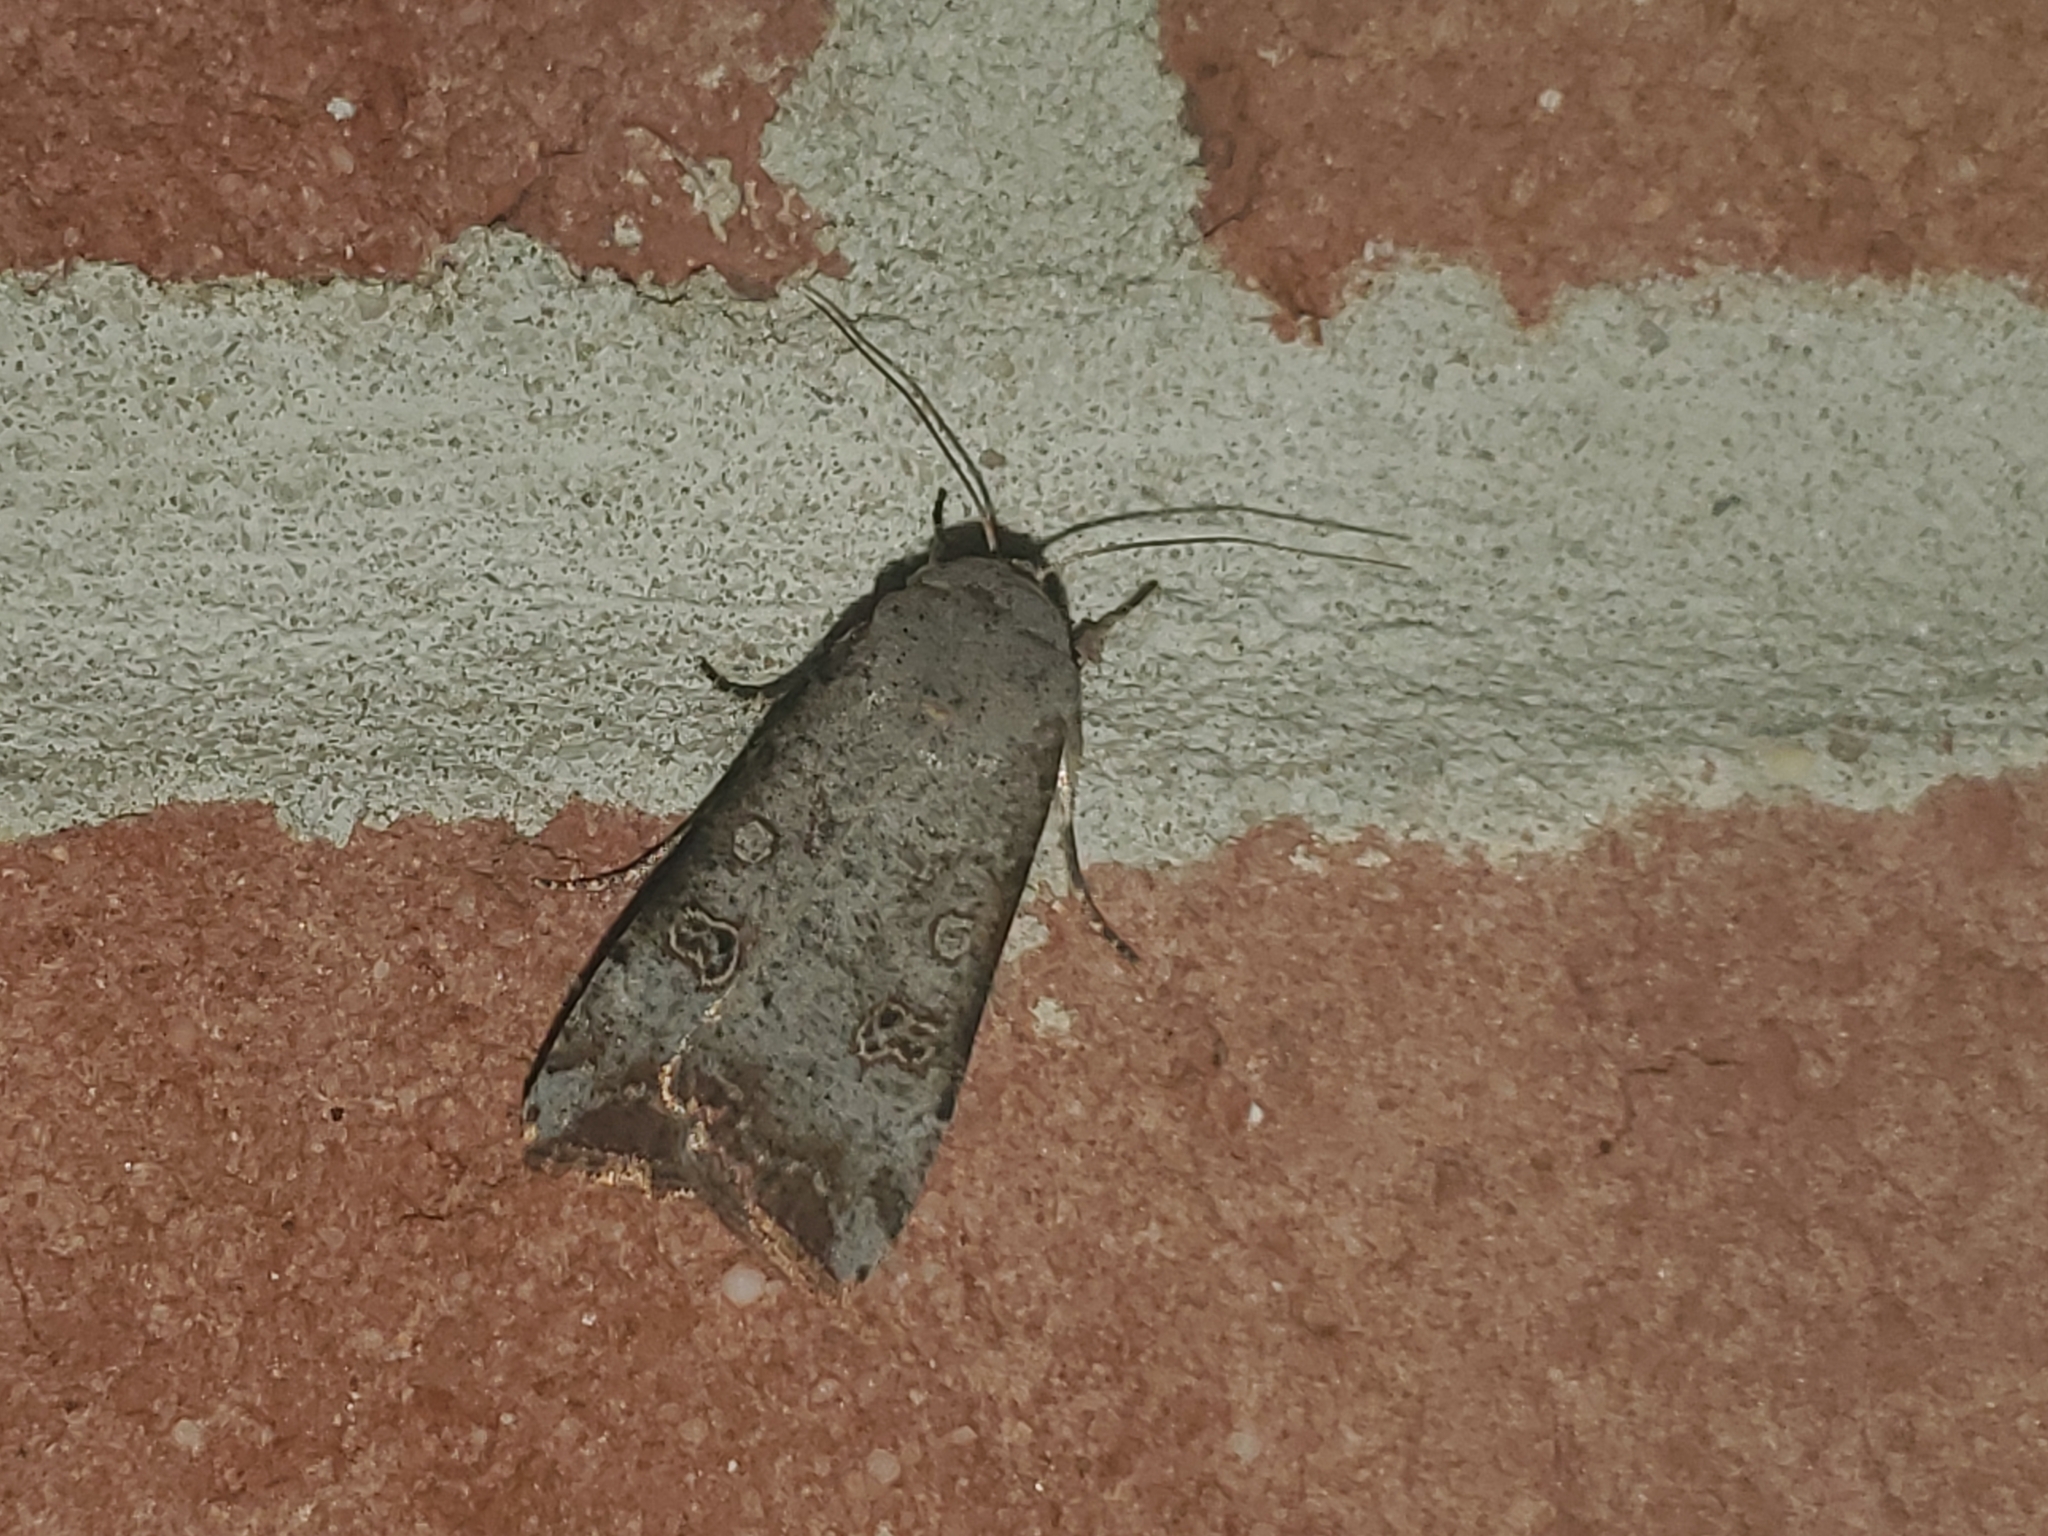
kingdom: Animalia
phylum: Arthropoda
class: Insecta
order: Lepidoptera
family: Noctuidae
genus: Anicla
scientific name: Anicla infecta
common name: Green cutworm
